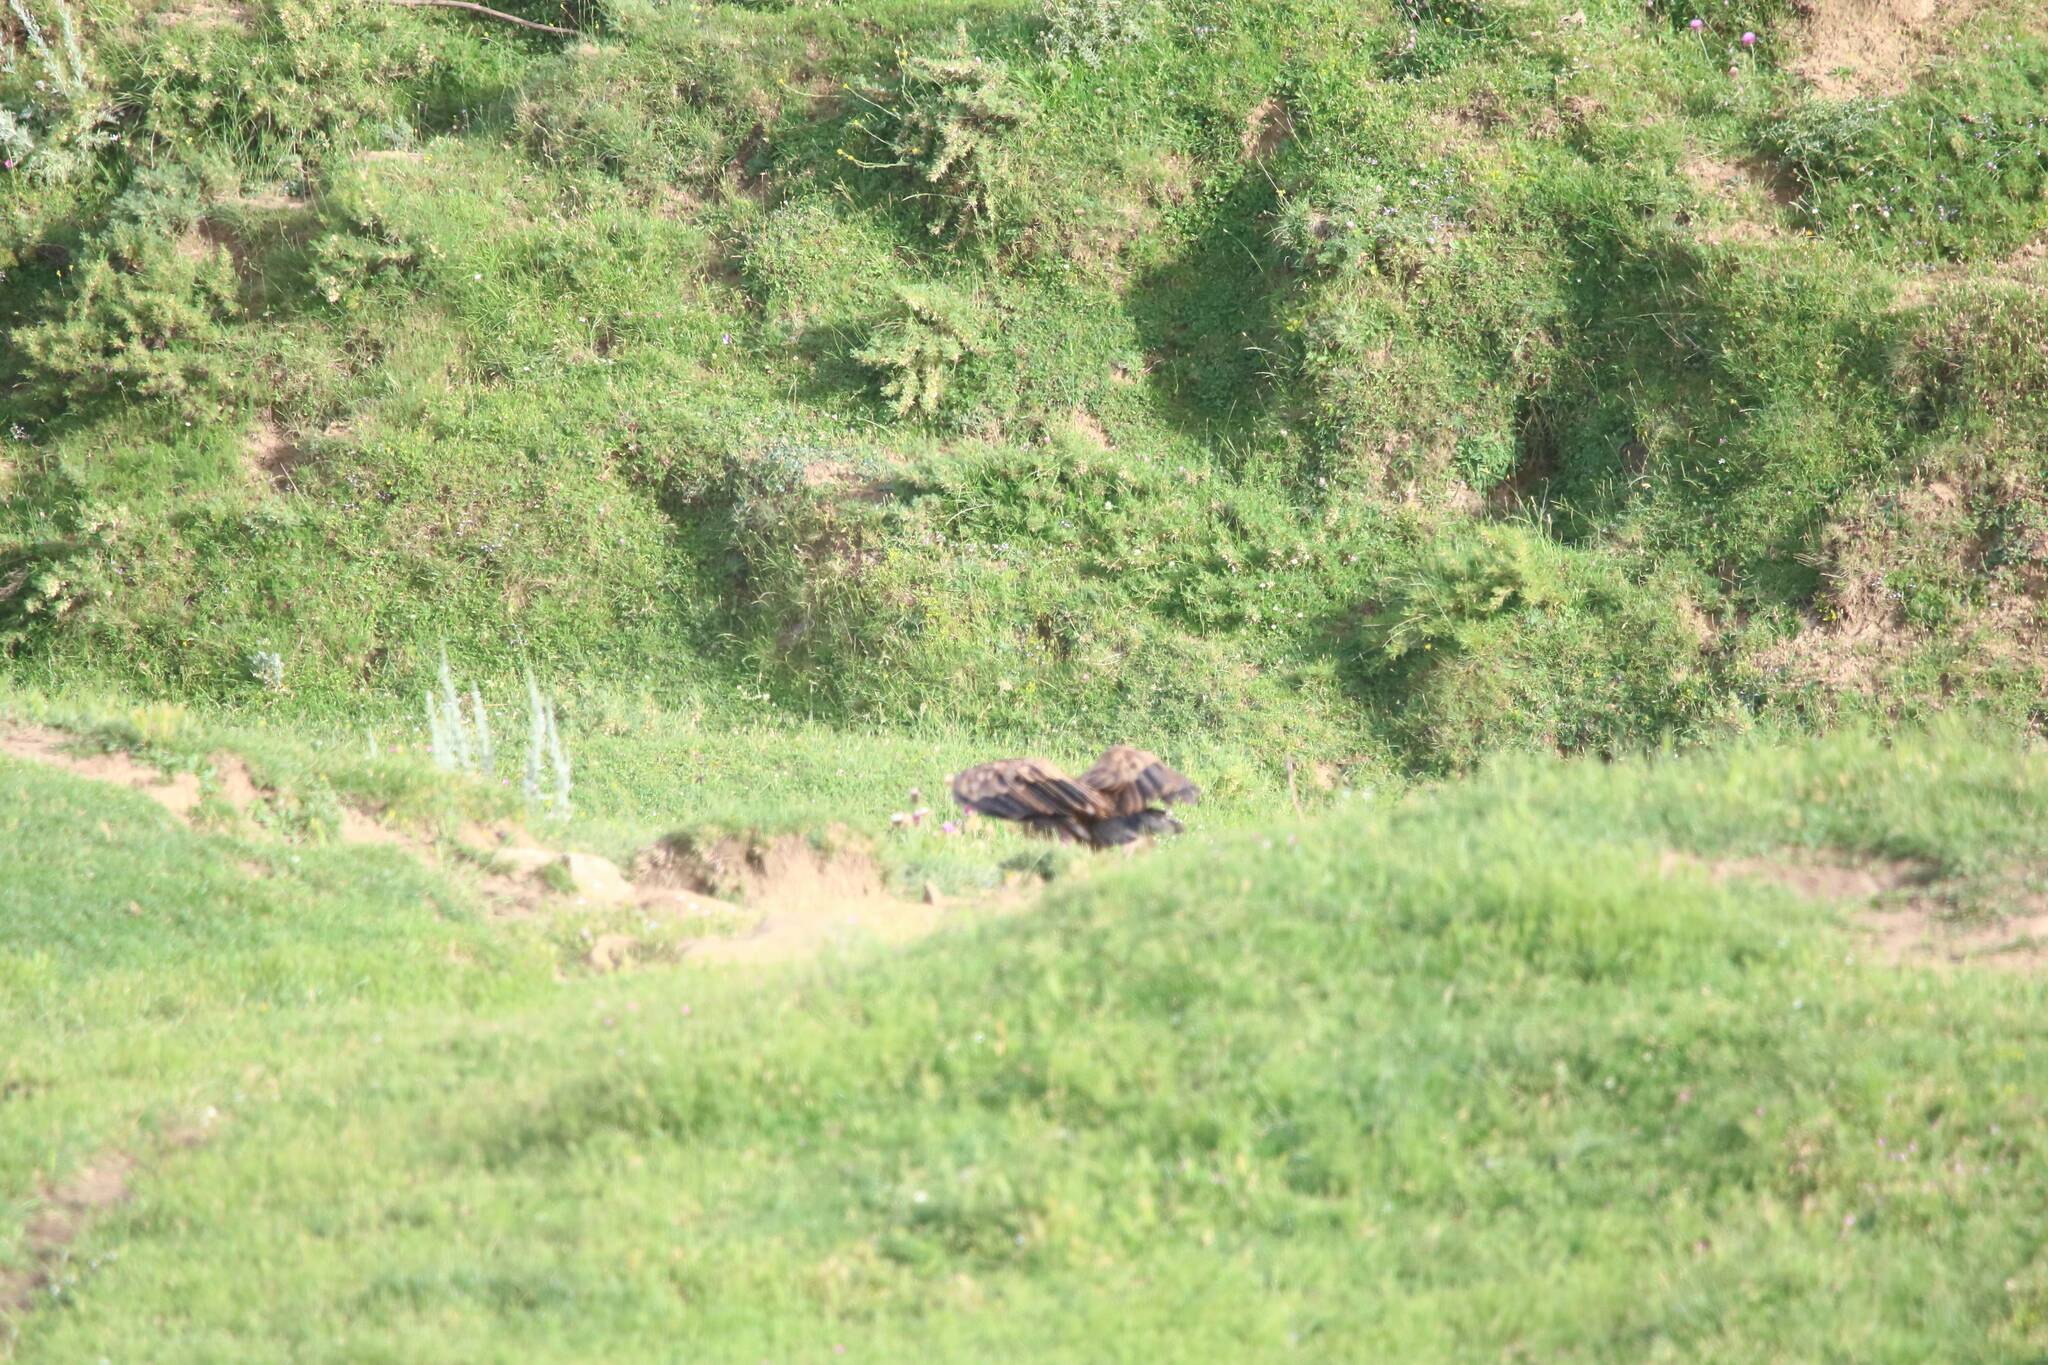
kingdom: Animalia
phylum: Chordata
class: Aves
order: Accipitriformes
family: Accipitridae
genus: Gyps
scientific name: Gyps fulvus
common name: Griffon vulture
